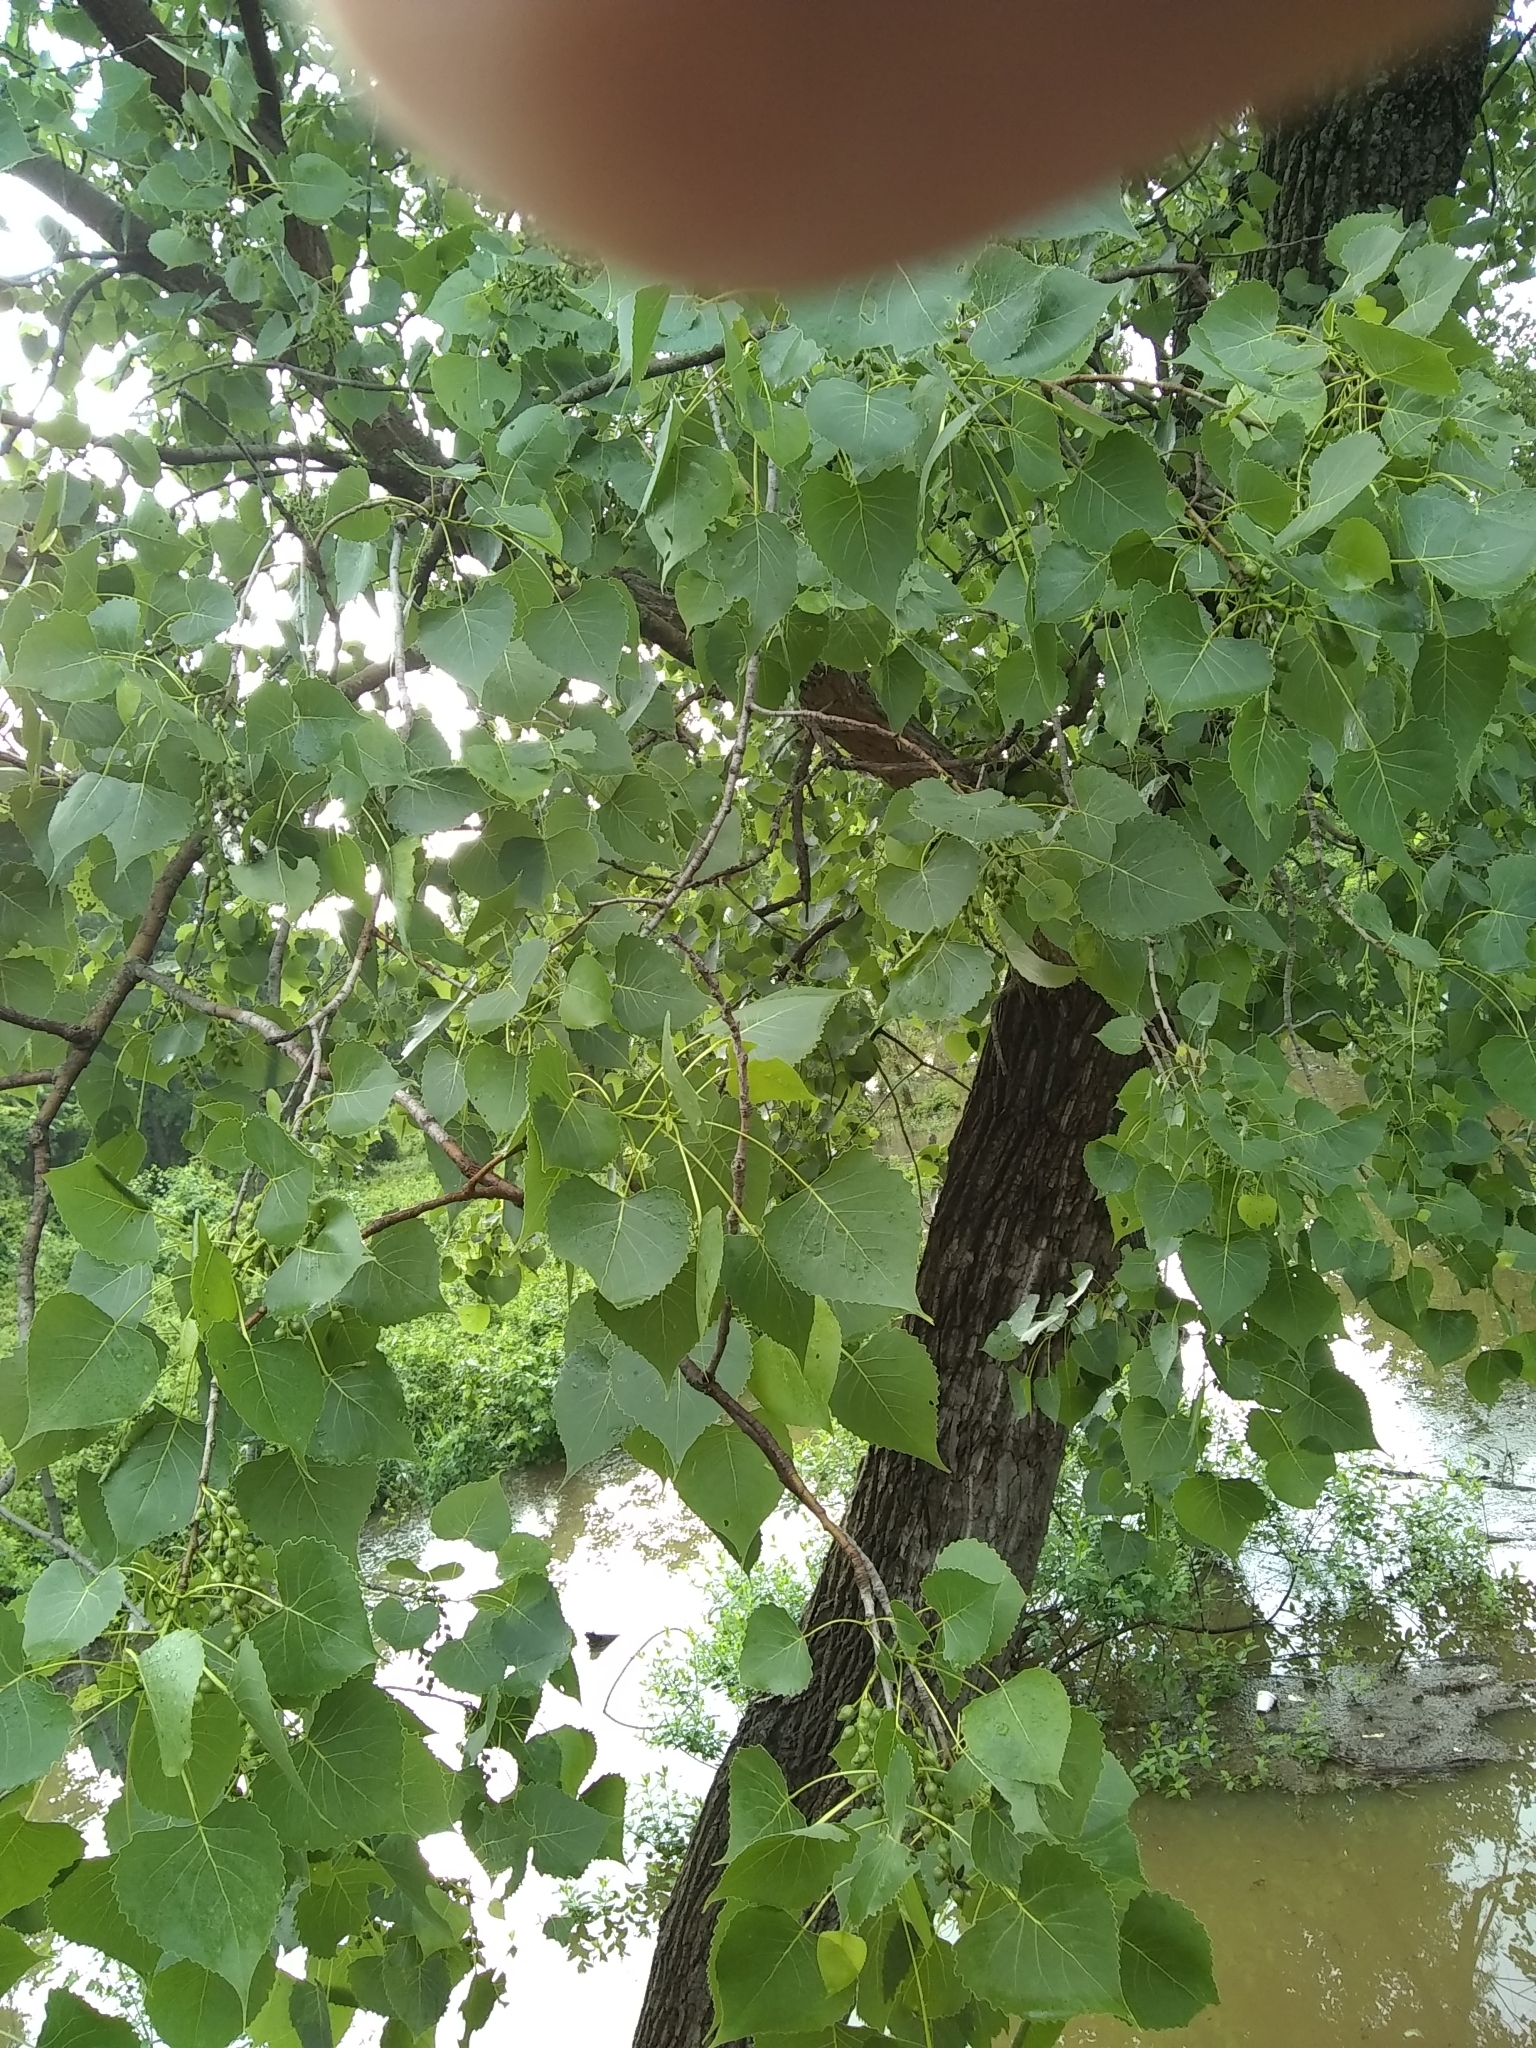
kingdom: Plantae
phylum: Tracheophyta
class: Magnoliopsida
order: Malpighiales
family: Salicaceae
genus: Populus
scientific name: Populus deltoides
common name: Eastern cottonwood
